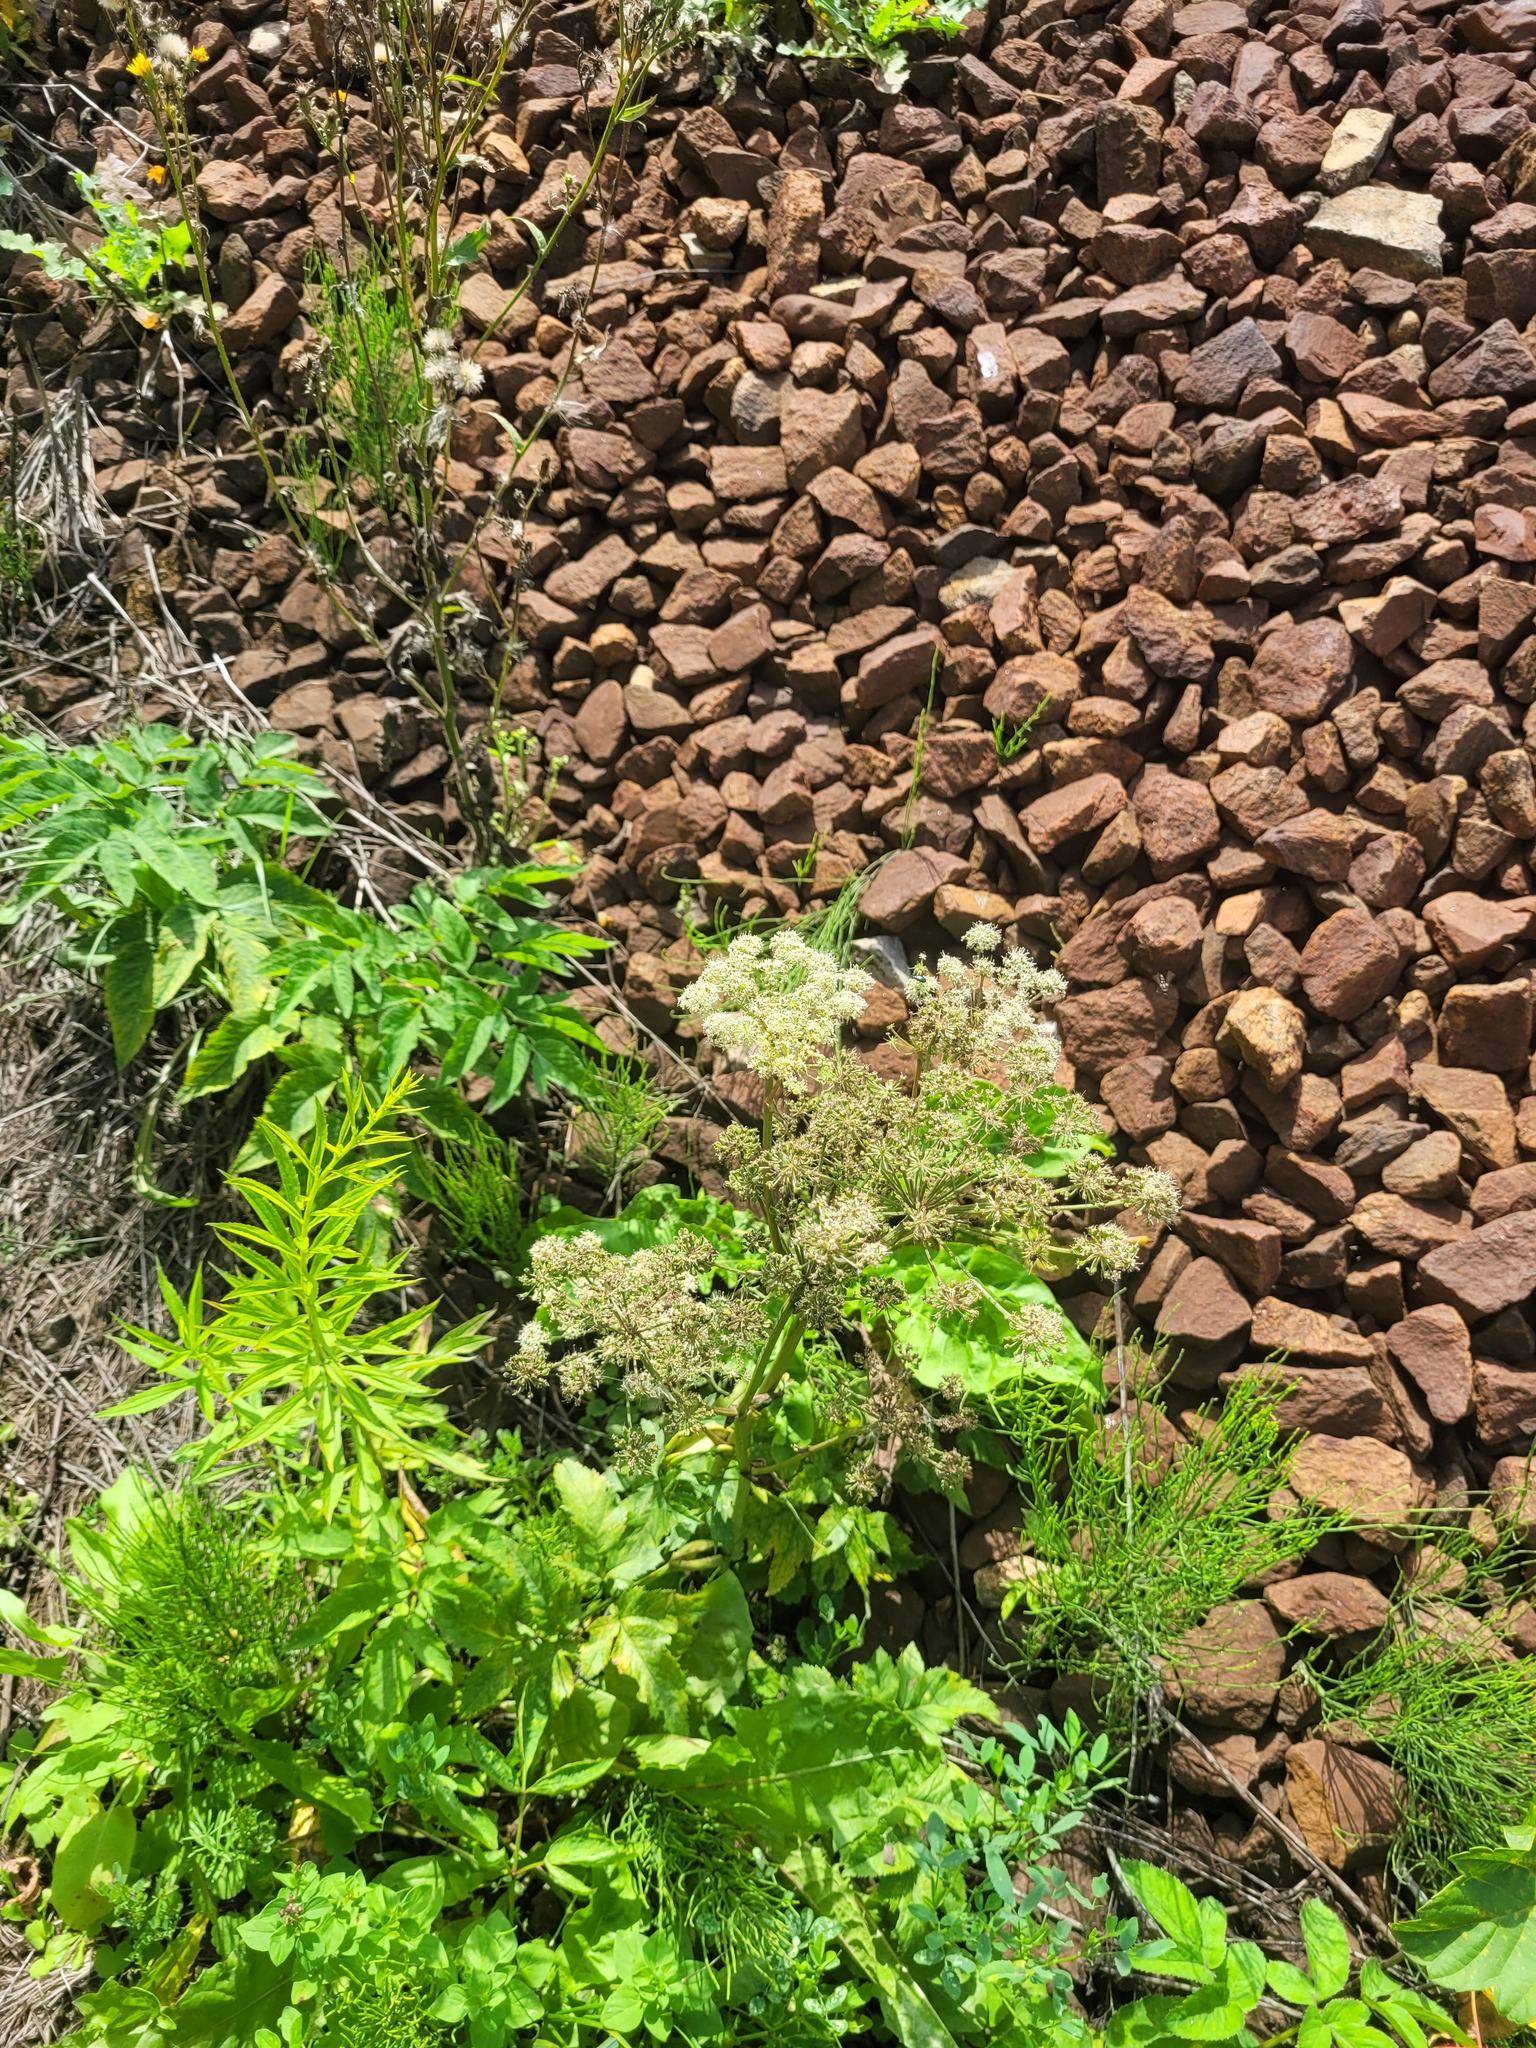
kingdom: Plantae
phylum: Tracheophyta
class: Magnoliopsida
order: Apiales
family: Apiaceae
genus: Angelica
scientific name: Angelica sylvestris
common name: Wild angelica
